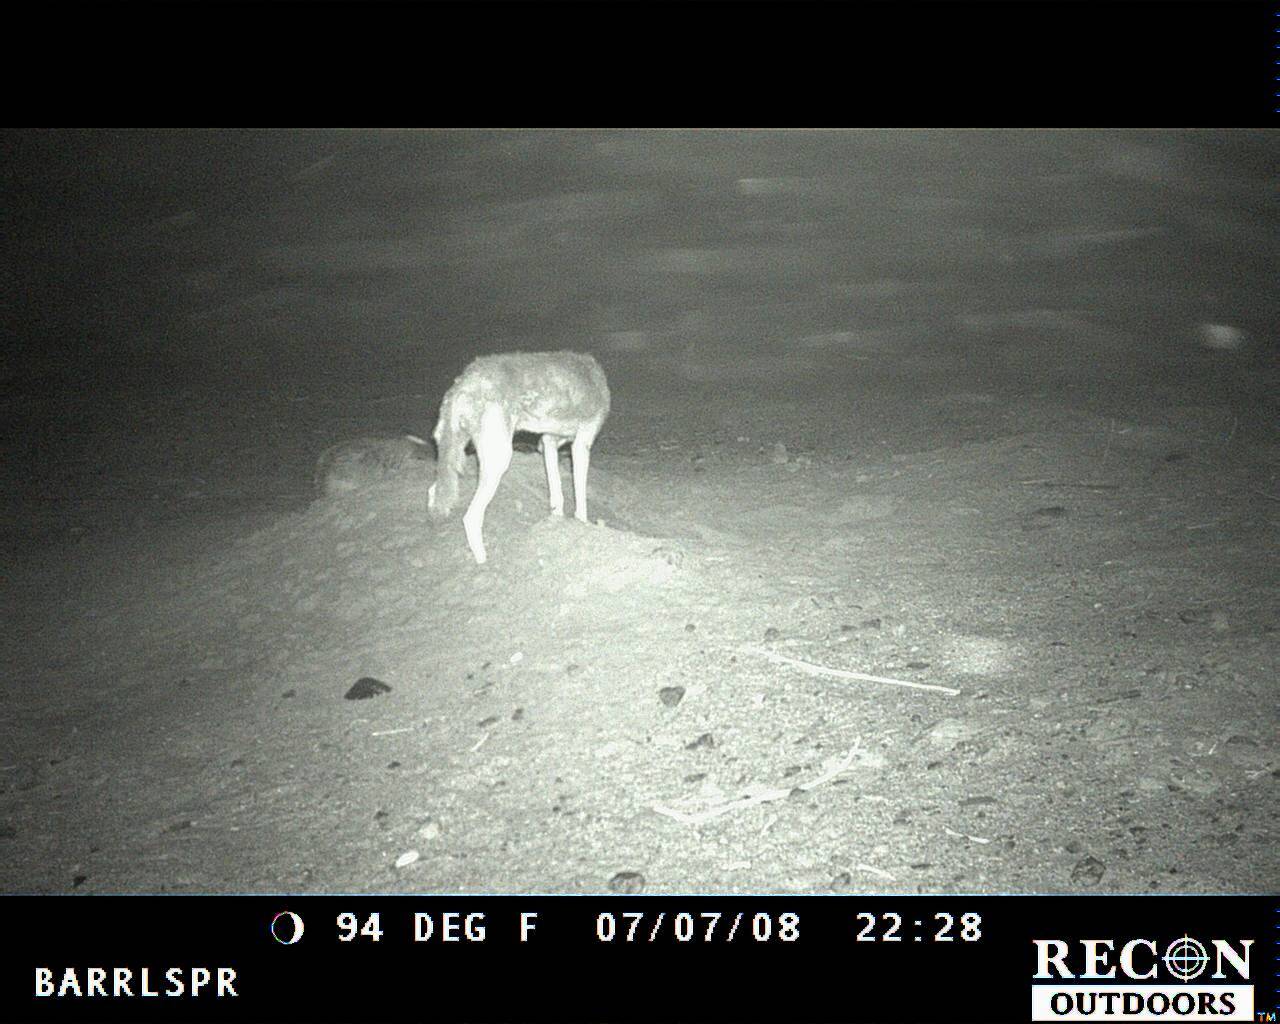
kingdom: Animalia
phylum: Chordata
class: Mammalia
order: Carnivora
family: Mustelidae
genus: Taxidea
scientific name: Taxidea taxus
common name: American badger
